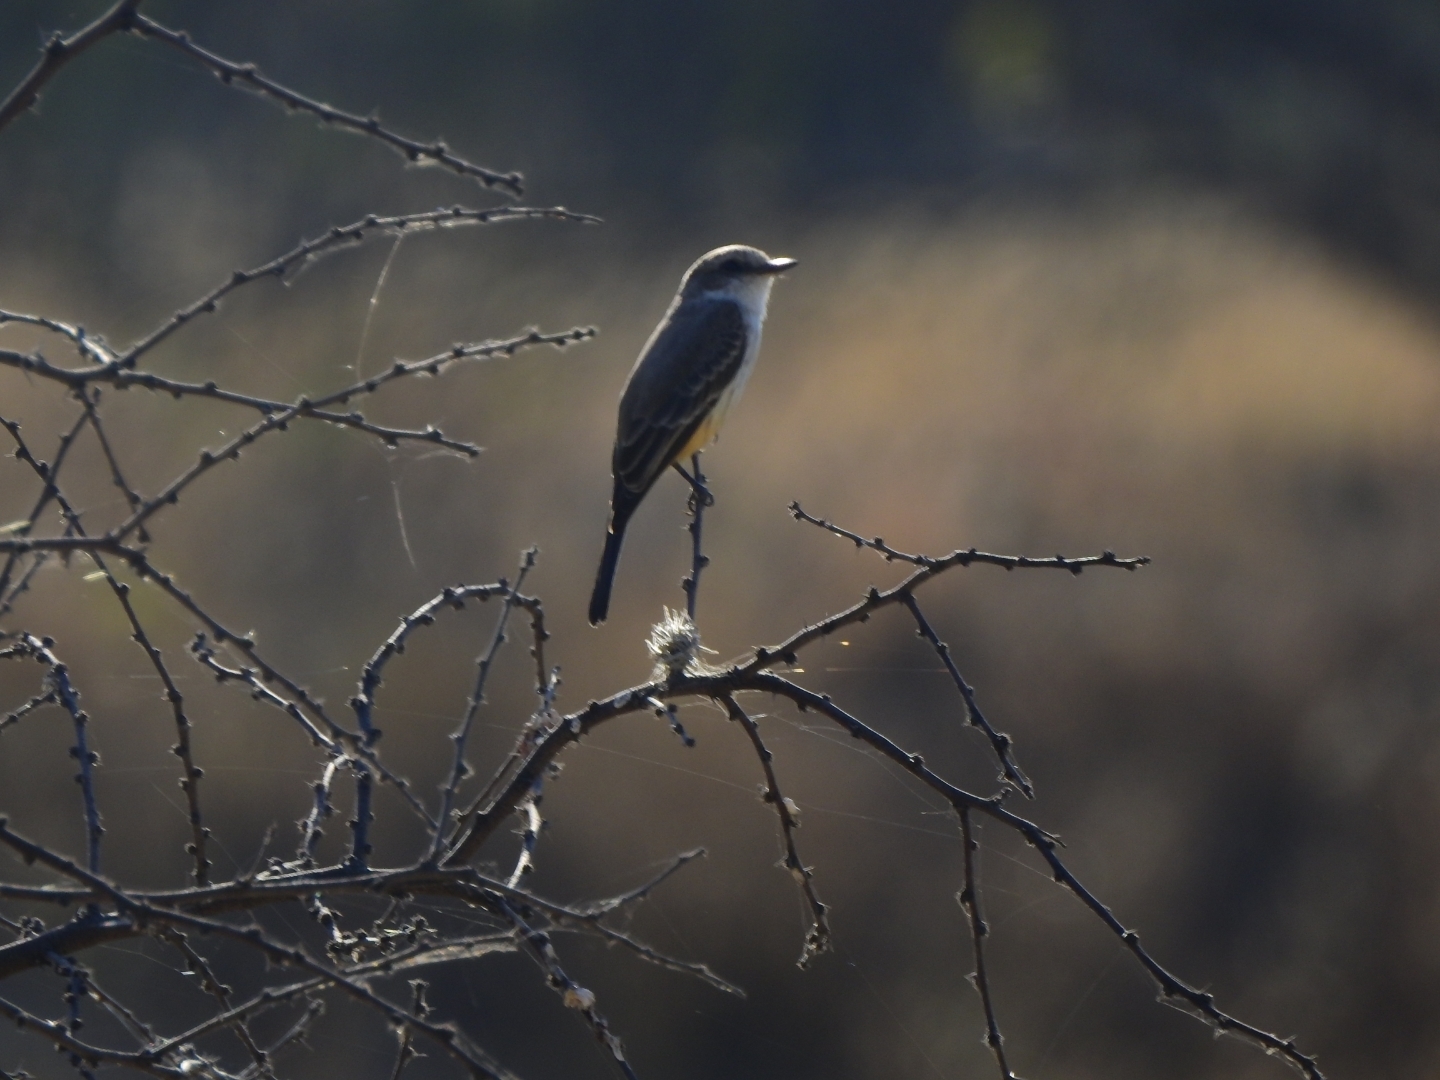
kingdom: Animalia
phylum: Chordata
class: Aves
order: Passeriformes
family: Tyrannidae
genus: Pyrocephalus
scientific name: Pyrocephalus rubinus
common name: Vermilion flycatcher
